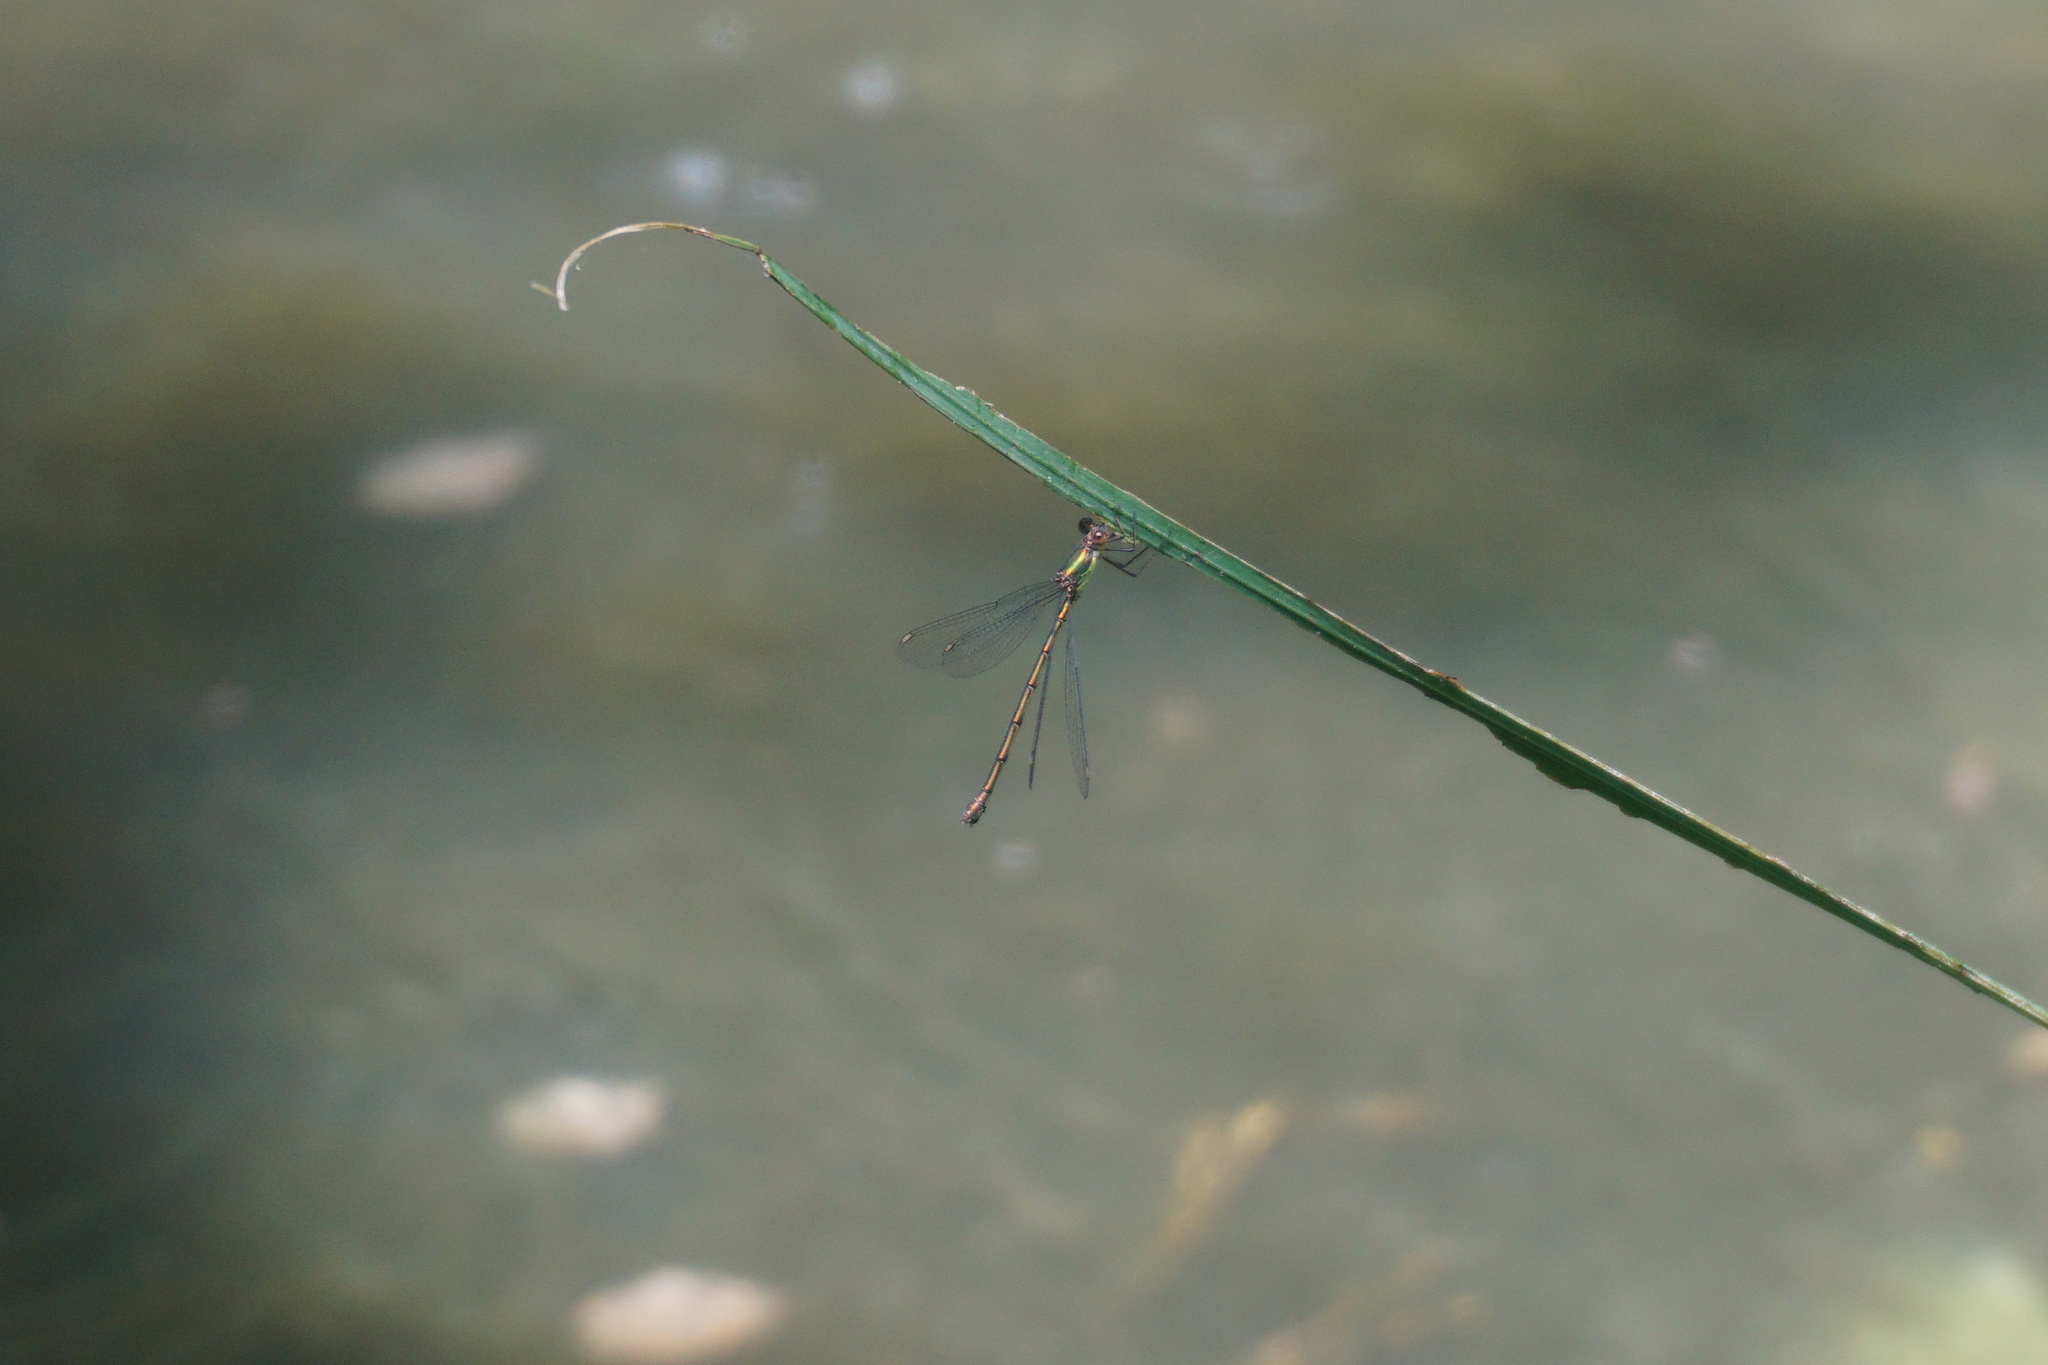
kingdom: Animalia
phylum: Arthropoda
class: Insecta
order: Odonata
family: Lestidae
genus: Chalcolestes
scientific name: Chalcolestes viridis
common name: Green emerald damselfly
